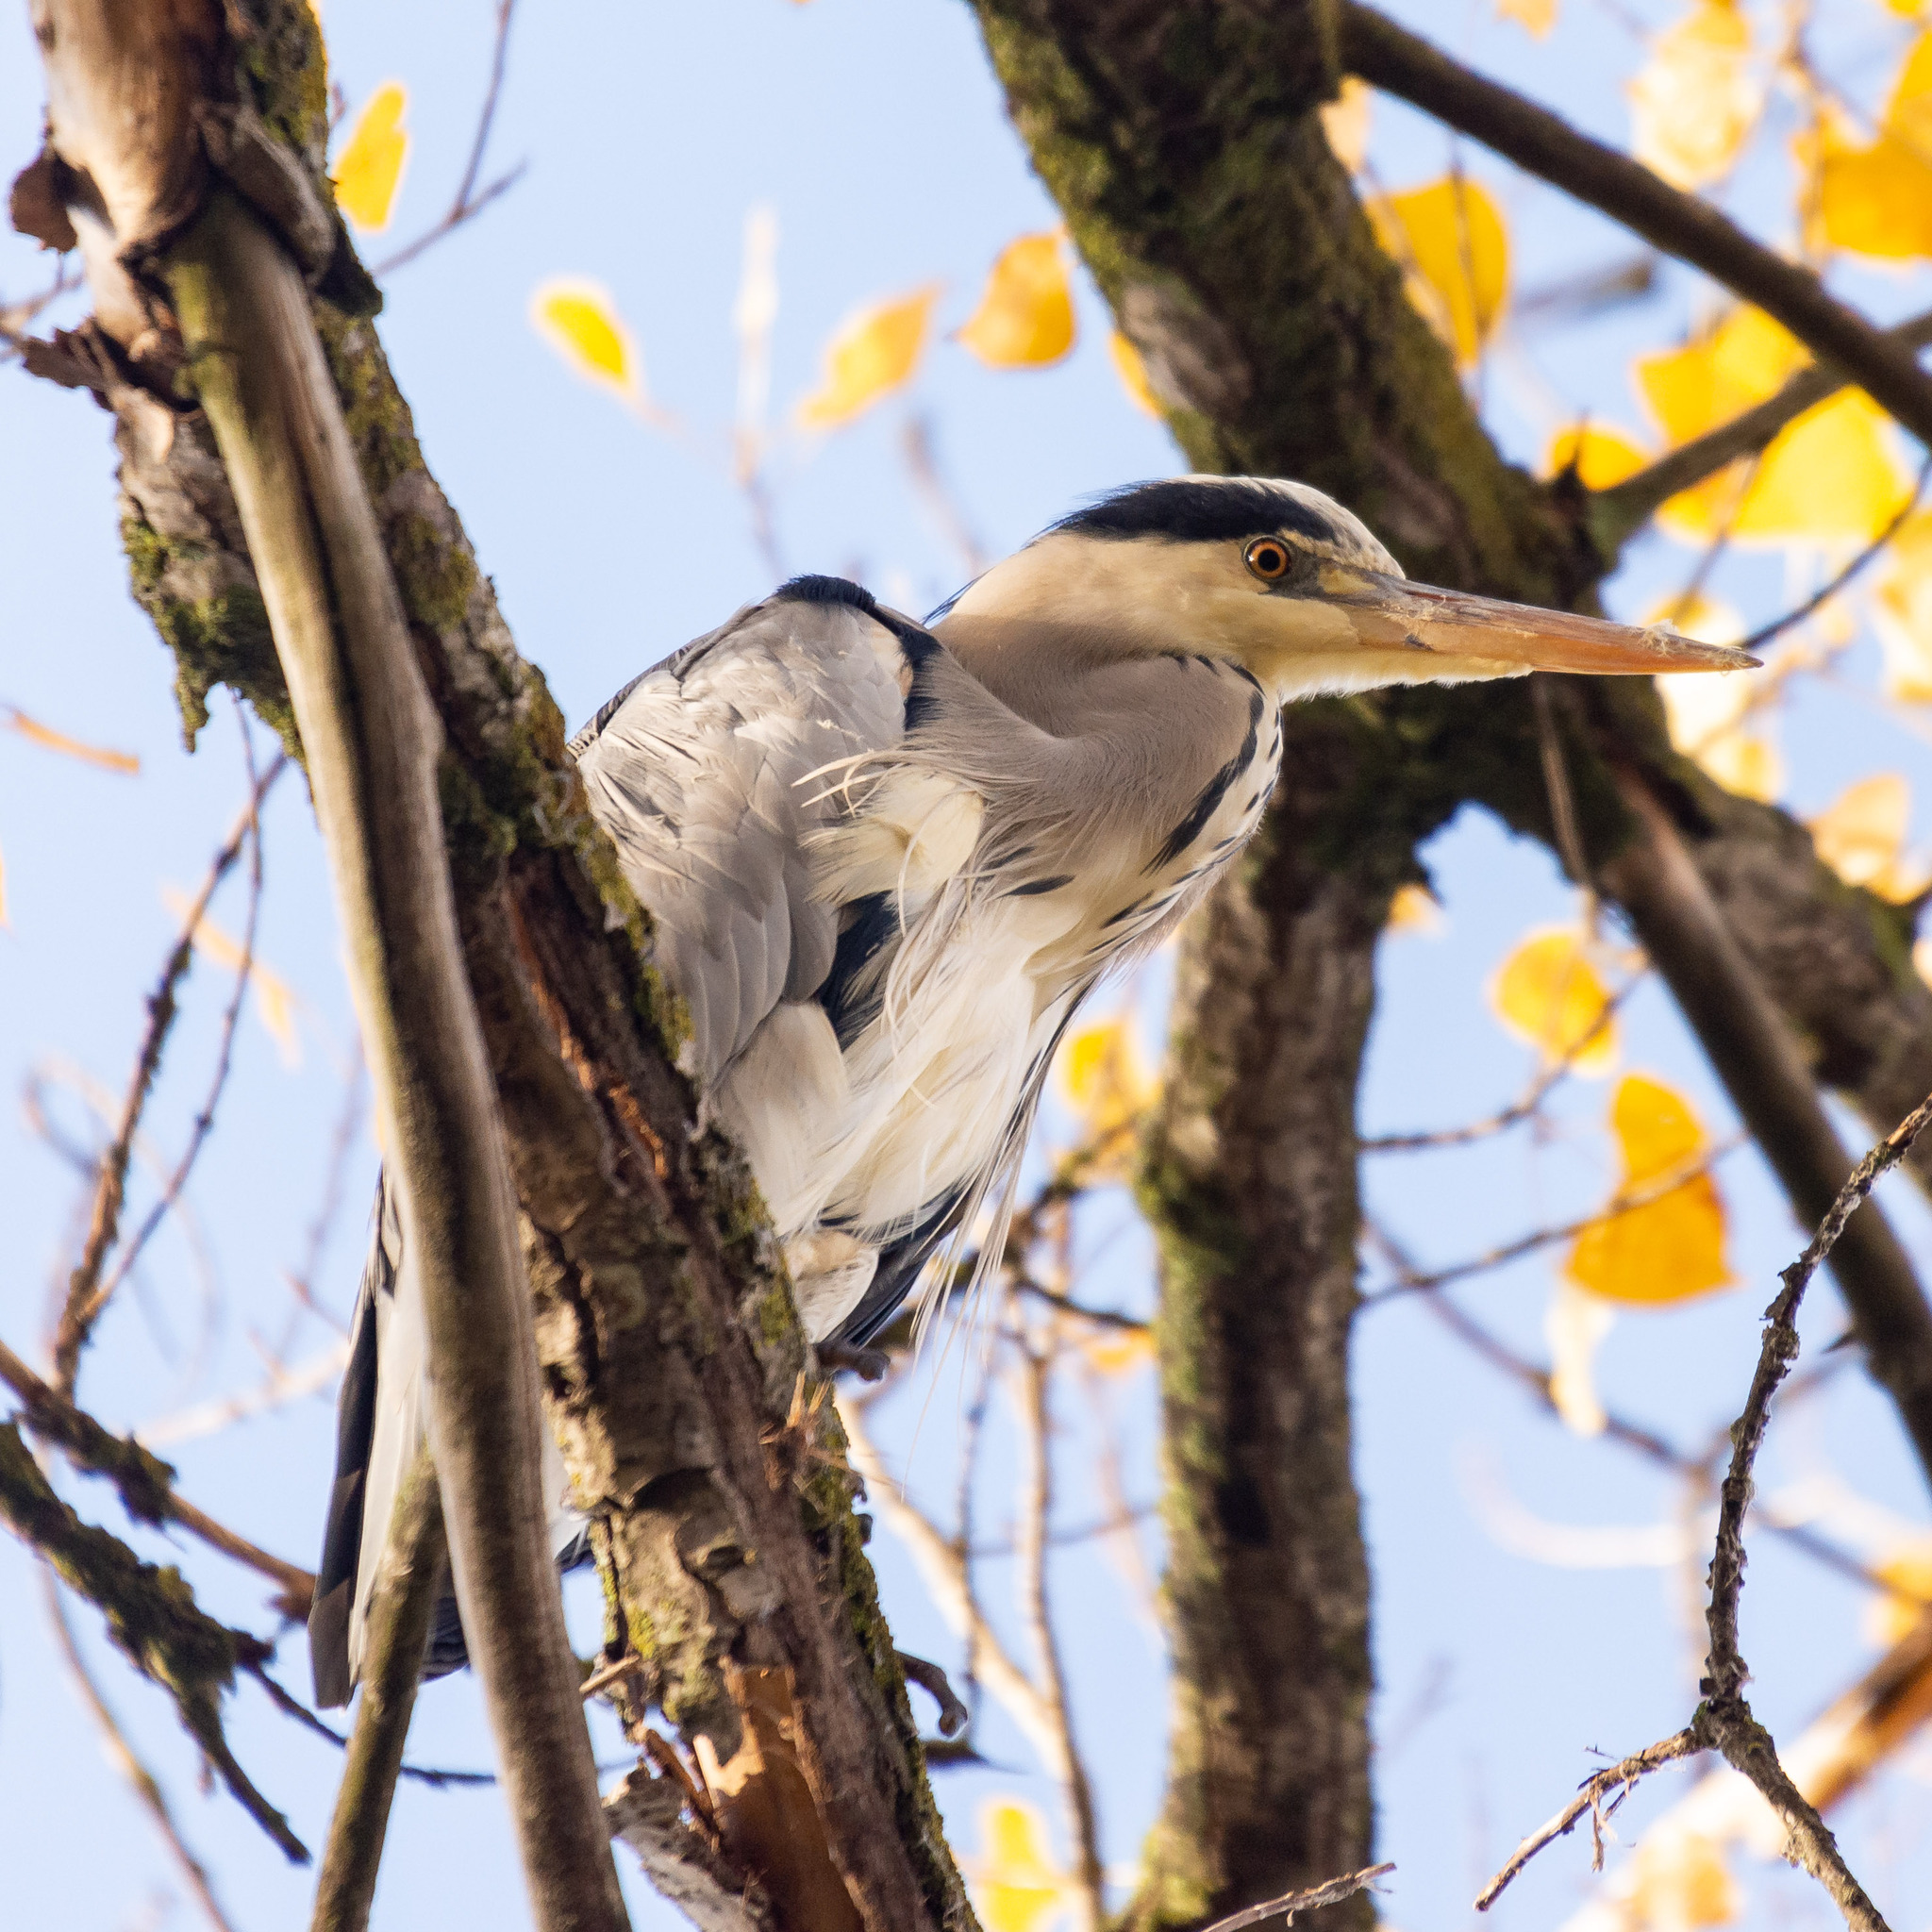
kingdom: Animalia
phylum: Chordata
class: Aves
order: Pelecaniformes
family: Ardeidae
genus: Ardea
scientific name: Ardea cinerea
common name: Grey heron
